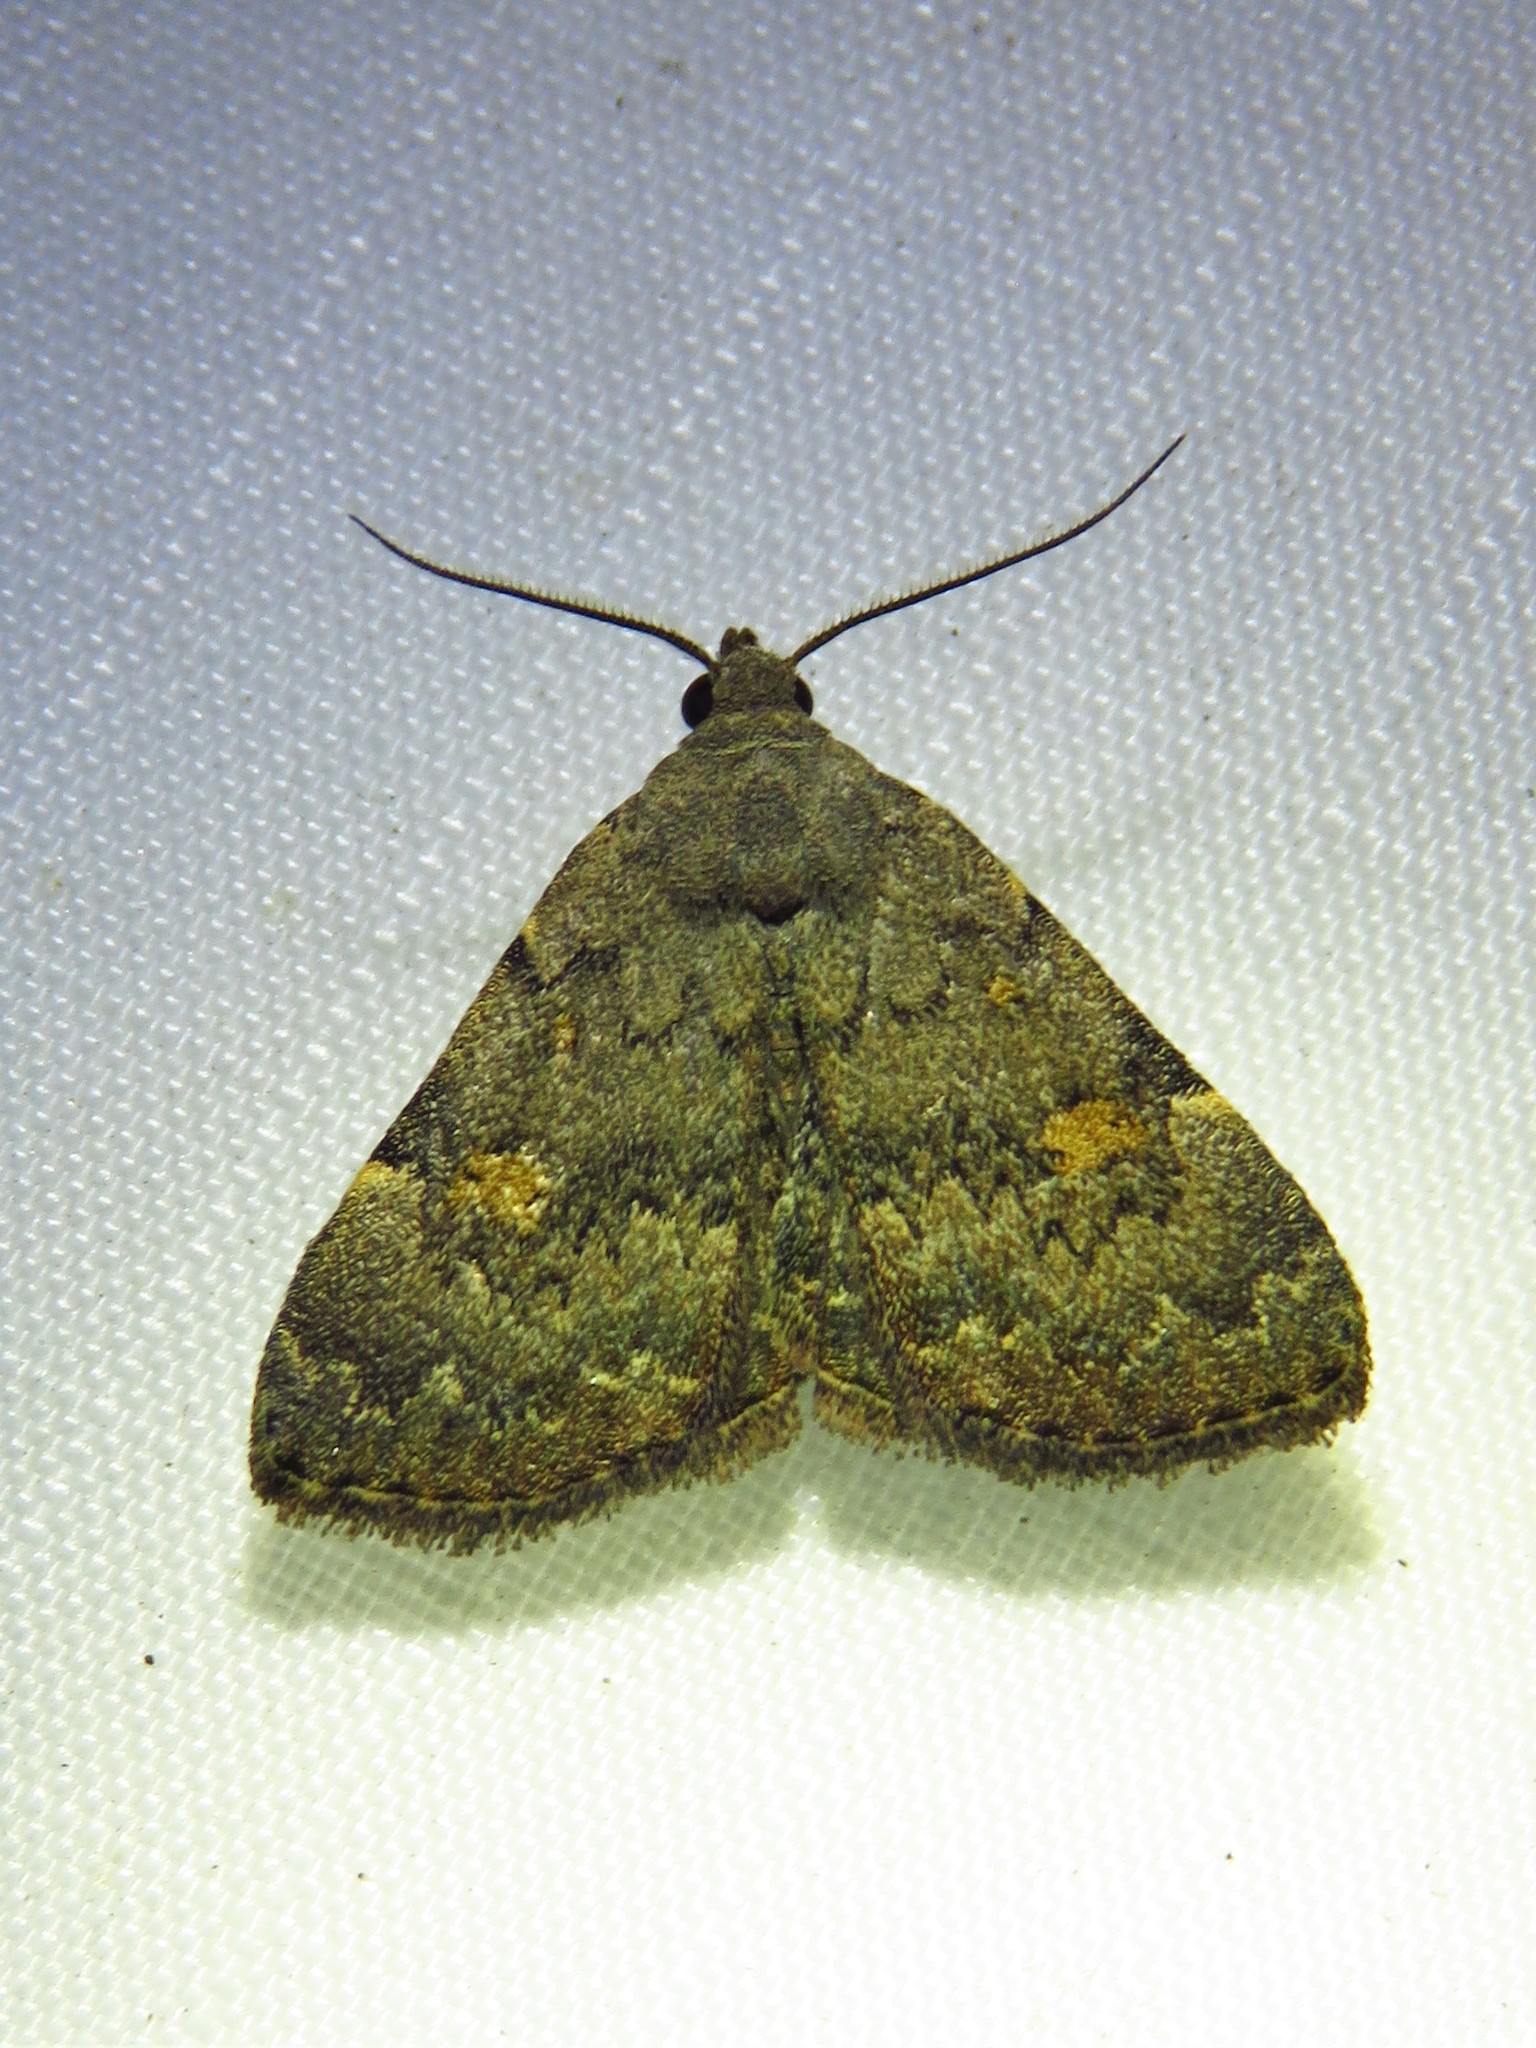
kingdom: Animalia
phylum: Arthropoda
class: Insecta
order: Lepidoptera
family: Erebidae
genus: Idia
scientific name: Idia aemula
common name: Common idia moth
